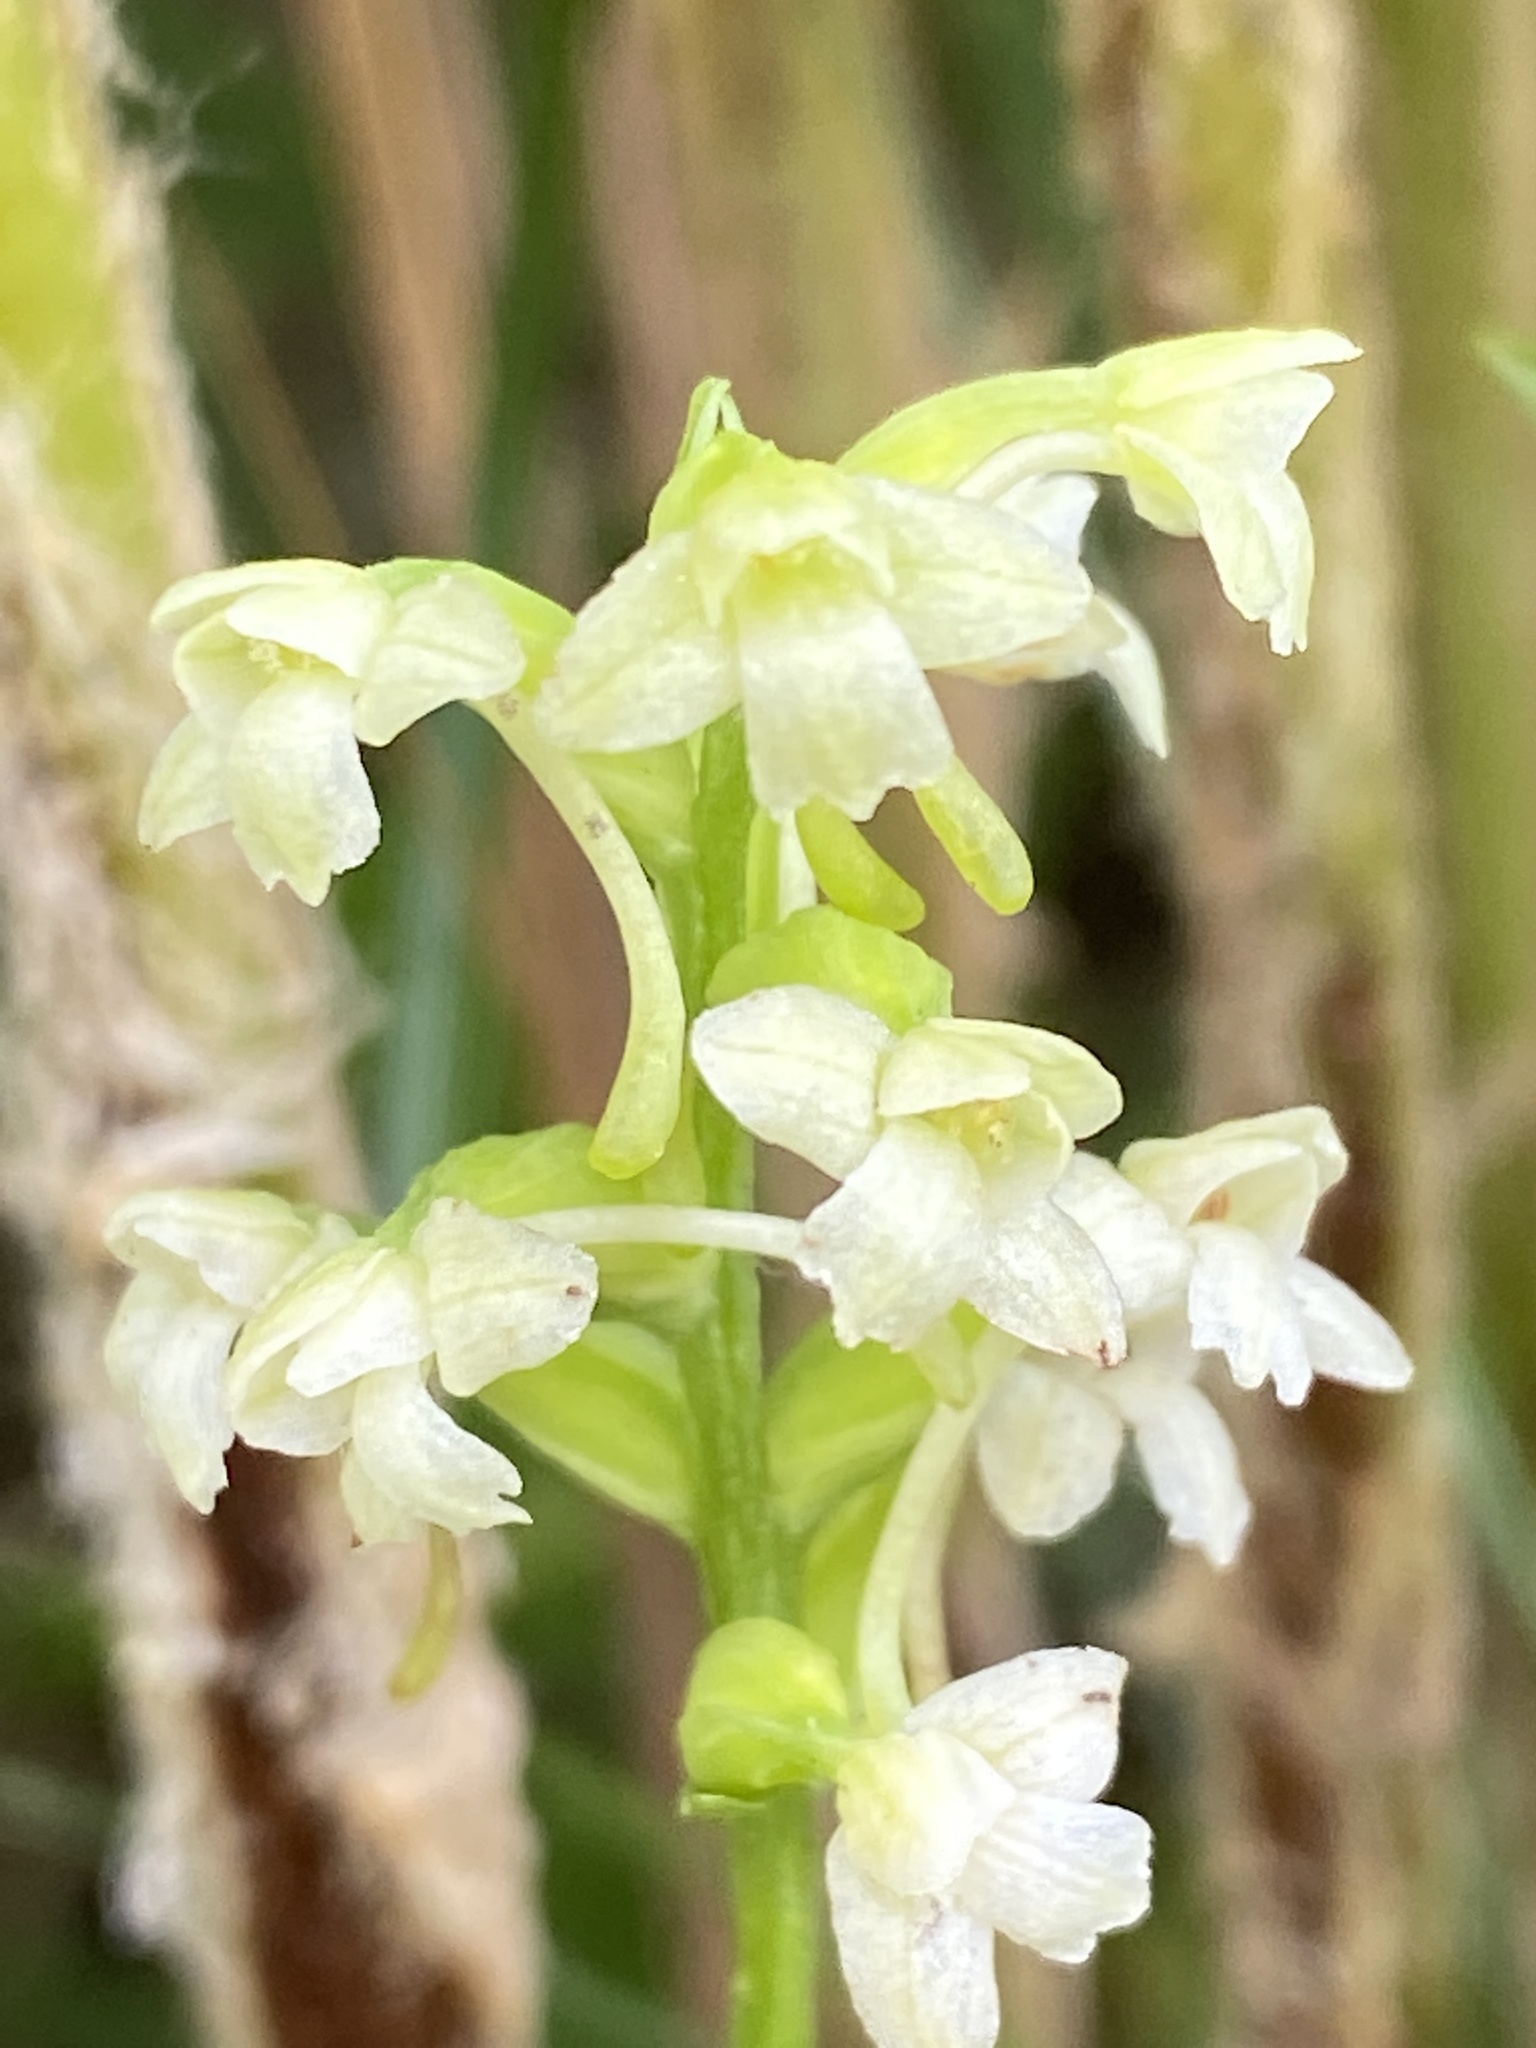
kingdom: Plantae
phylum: Tracheophyta
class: Liliopsida
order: Asparagales
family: Orchidaceae
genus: Platanthera
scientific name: Platanthera clavellata
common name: Club-spur orchid
